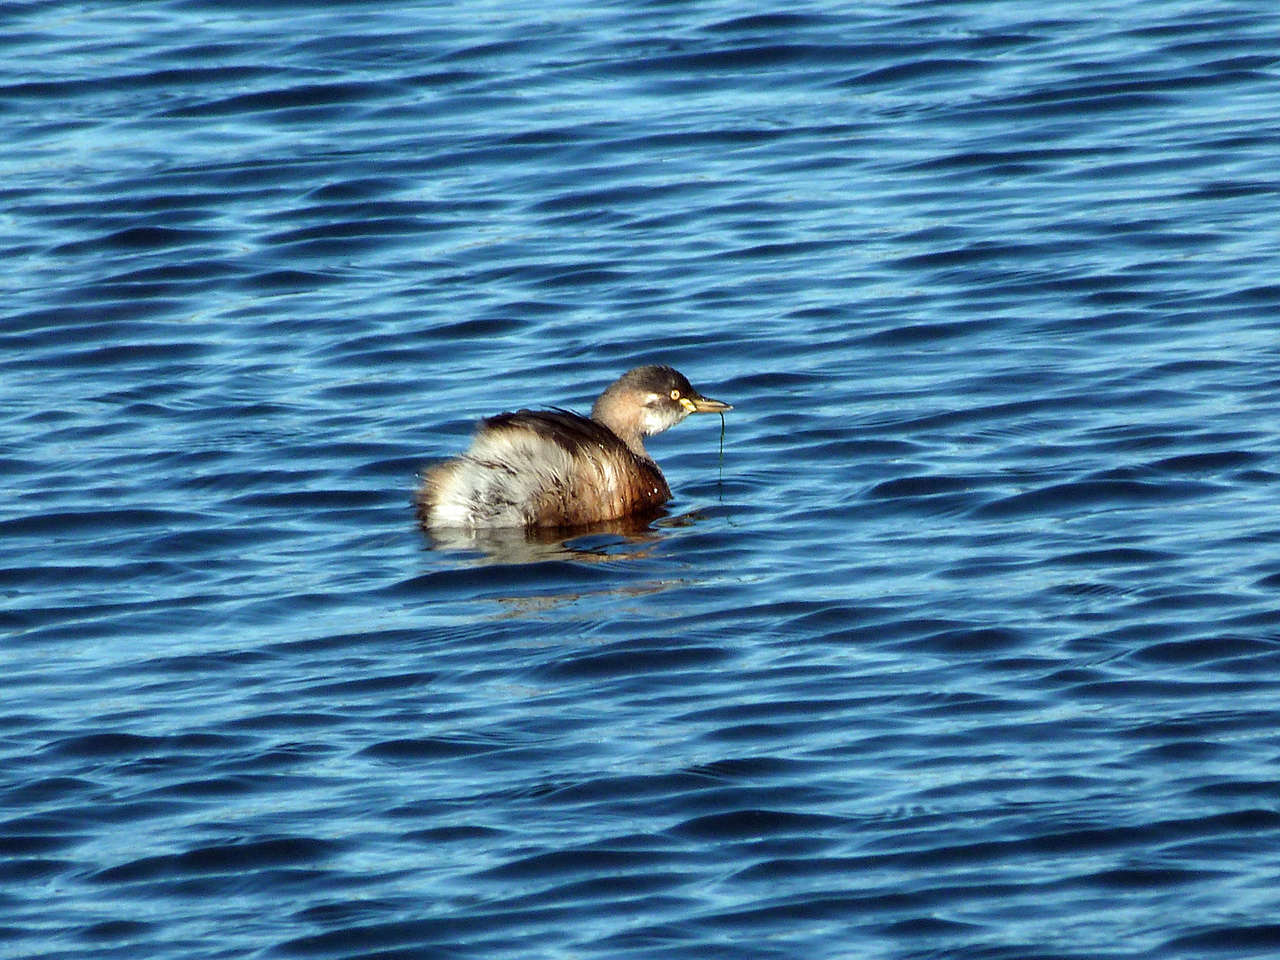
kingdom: Animalia
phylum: Chordata
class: Aves
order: Podicipediformes
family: Podicipedidae
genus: Tachybaptus
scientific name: Tachybaptus novaehollandiae
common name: Australasian grebe
